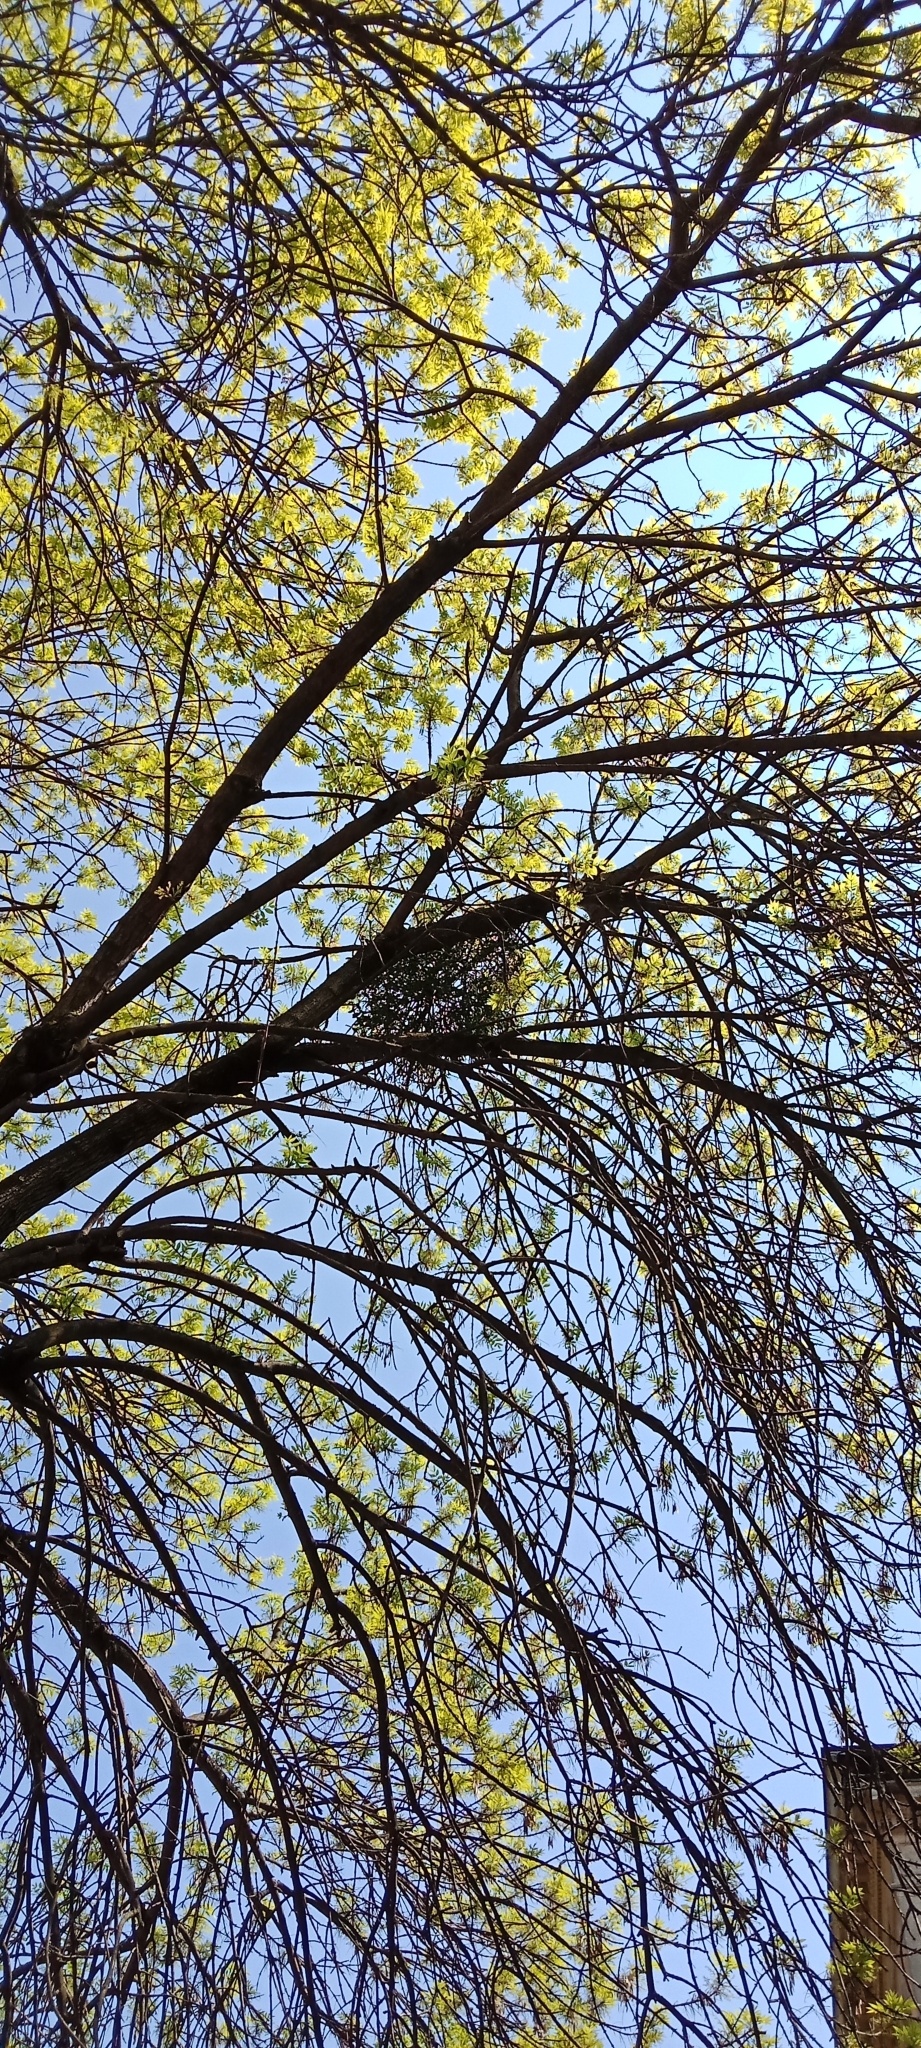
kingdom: Plantae
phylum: Tracheophyta
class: Magnoliopsida
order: Santalales
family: Viscaceae
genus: Viscum
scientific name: Viscum album
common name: Mistletoe
